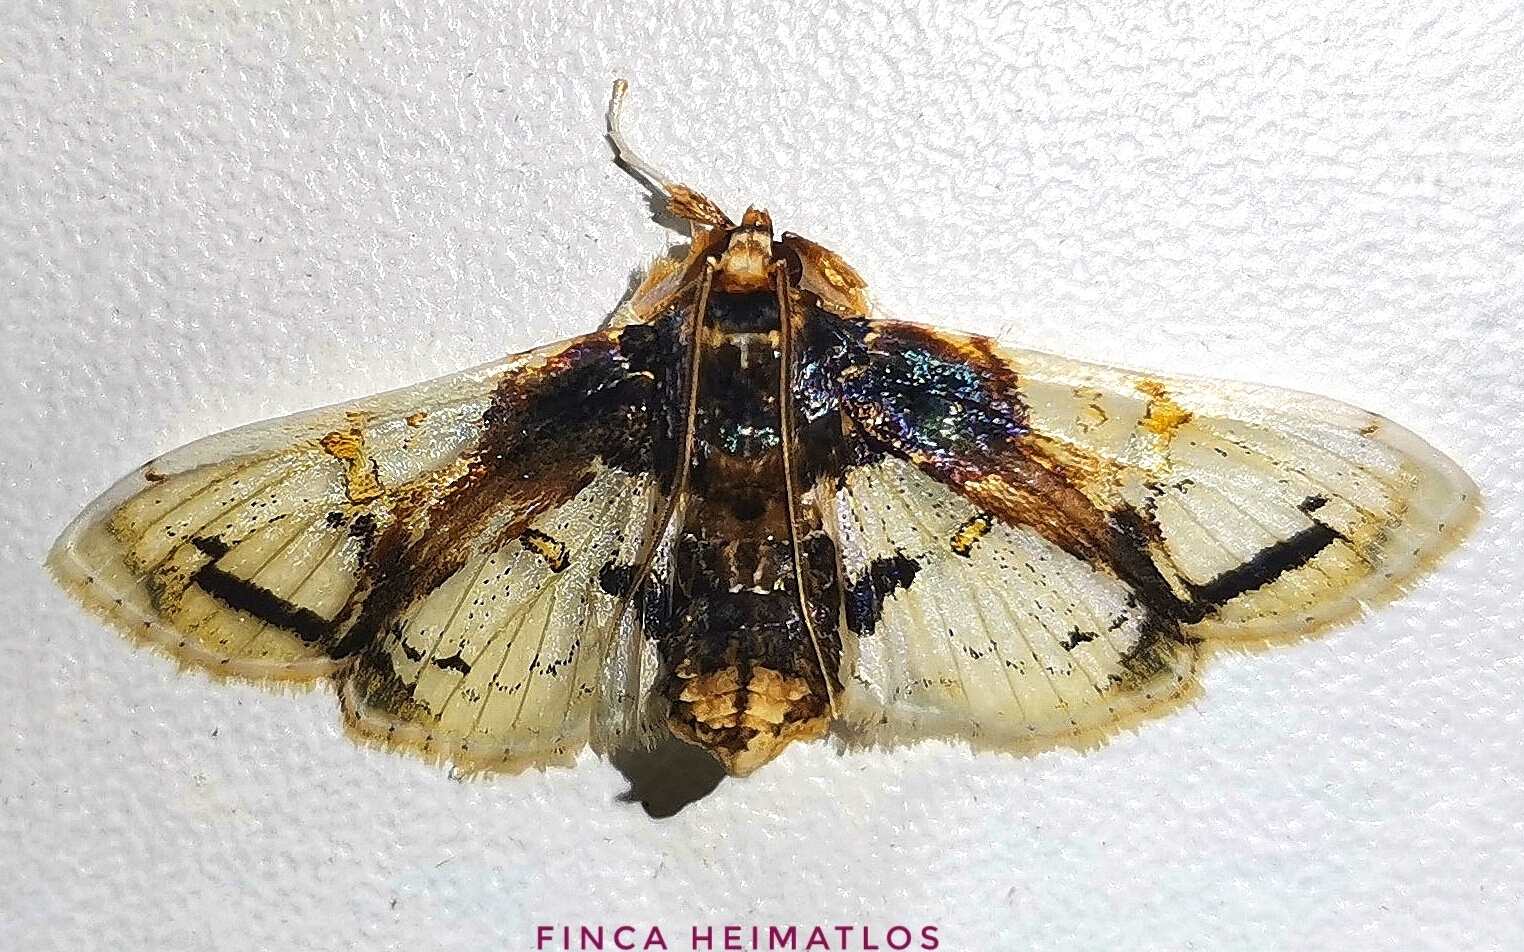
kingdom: Animalia
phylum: Arthropoda
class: Insecta
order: Lepidoptera
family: Crambidae
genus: Compacta
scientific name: Compacta nigrolinealis
